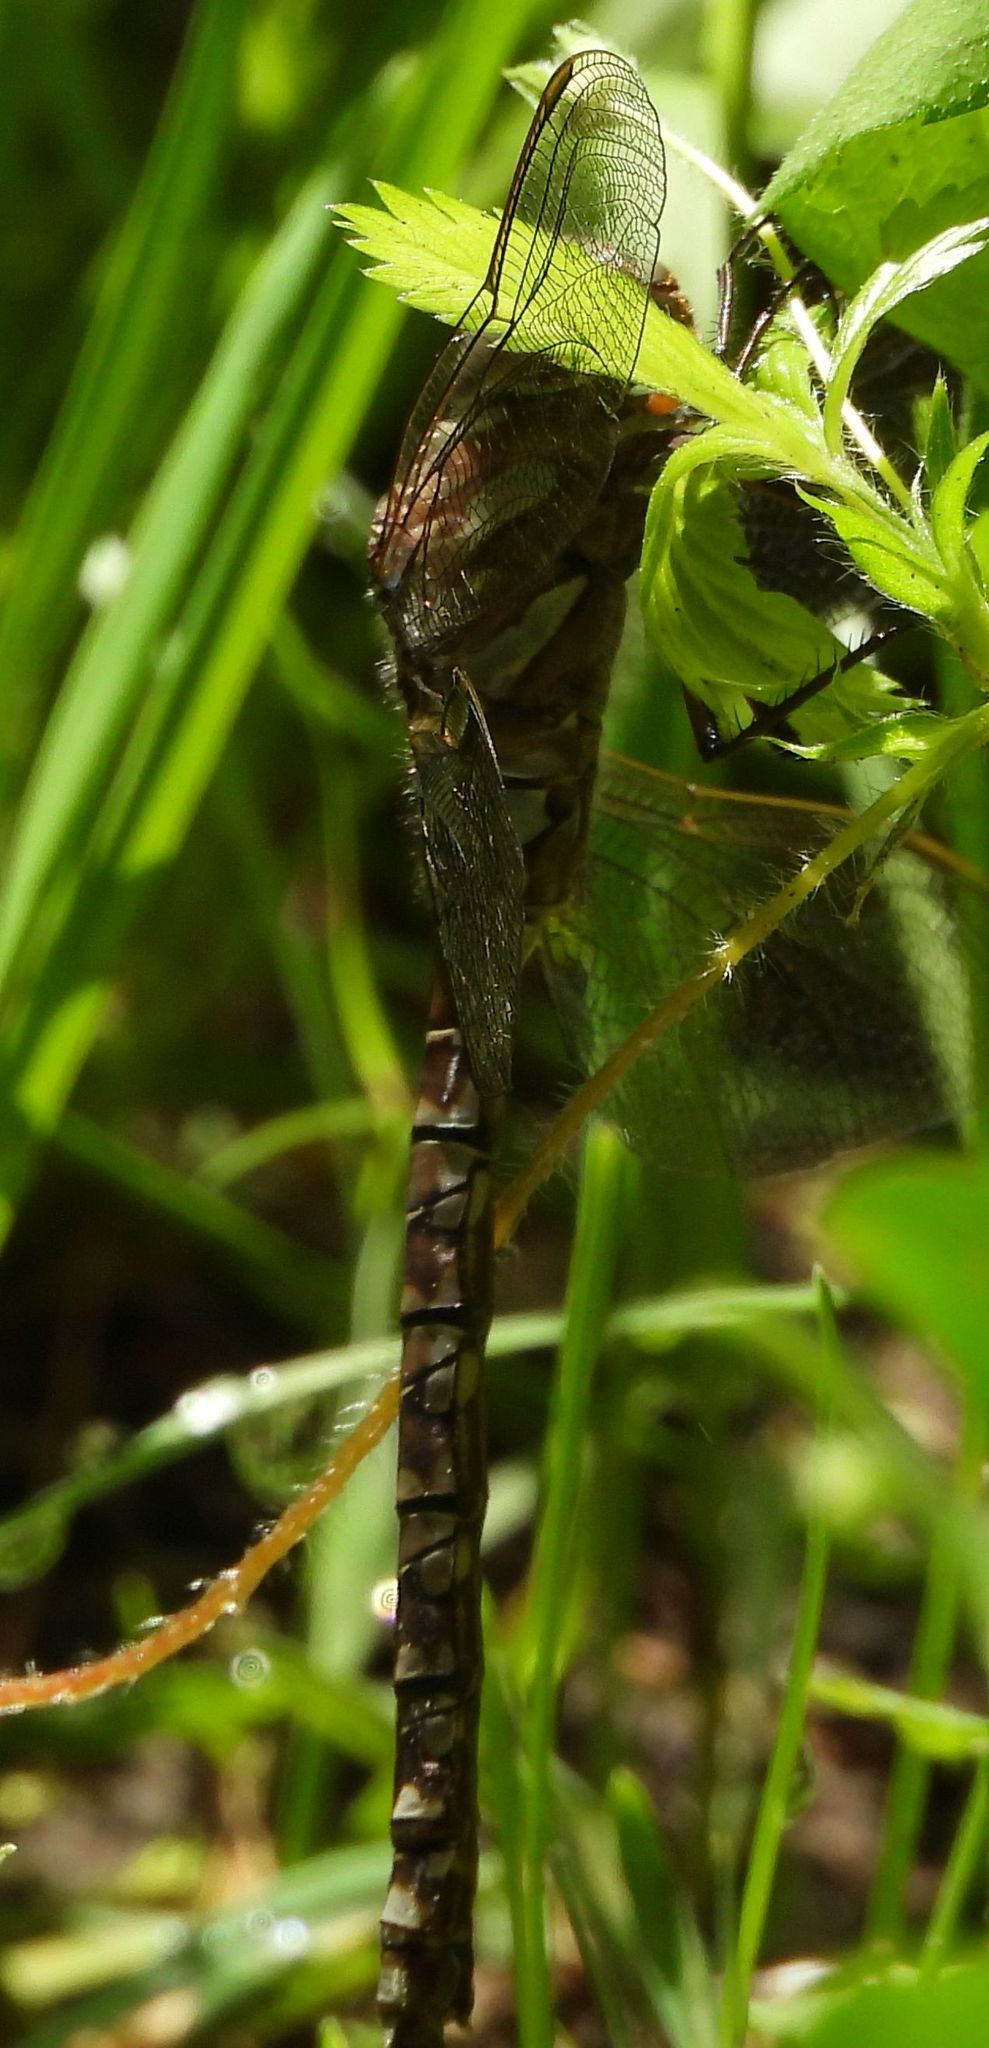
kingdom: Animalia
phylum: Arthropoda
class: Insecta
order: Odonata
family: Aeshnidae
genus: Aeshna
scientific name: Aeshna canadensis
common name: Canada darner
